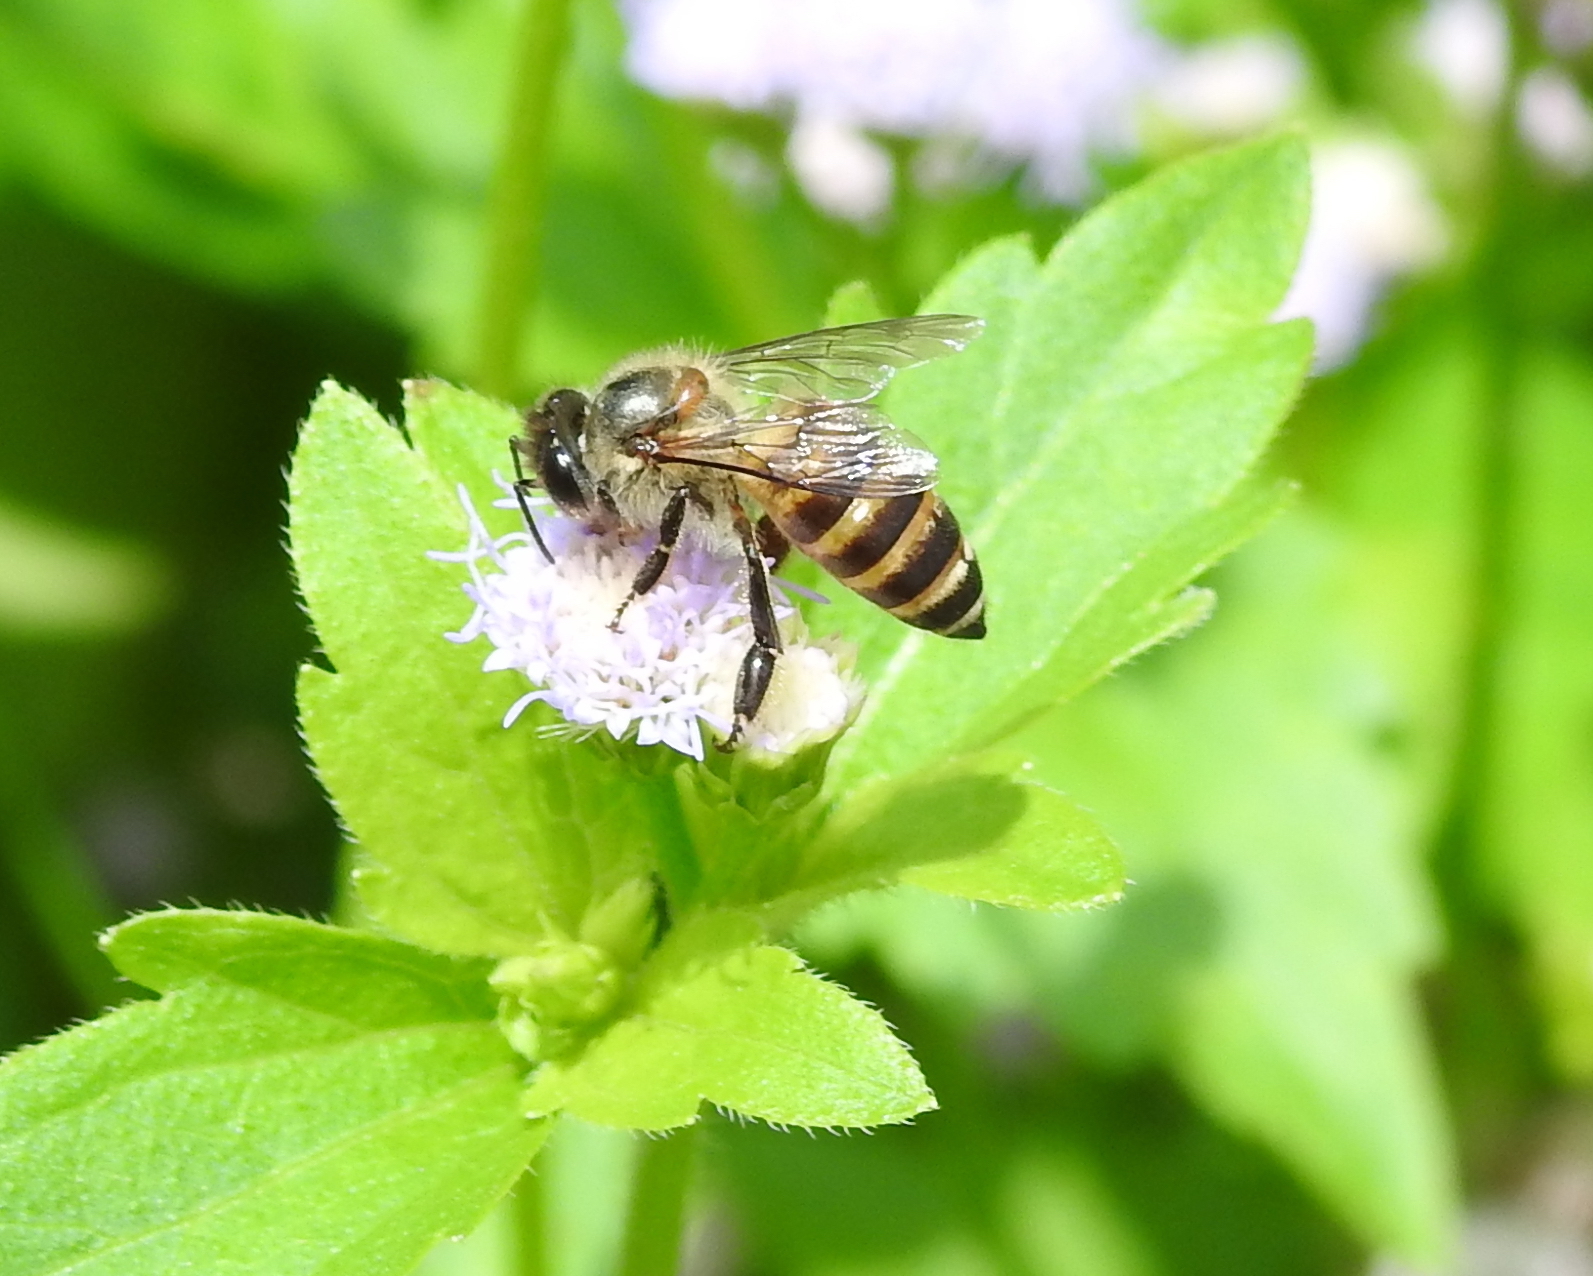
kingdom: Animalia
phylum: Arthropoda
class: Insecta
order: Hymenoptera
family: Apidae
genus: Apis
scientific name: Apis cerana
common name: Honey bee
